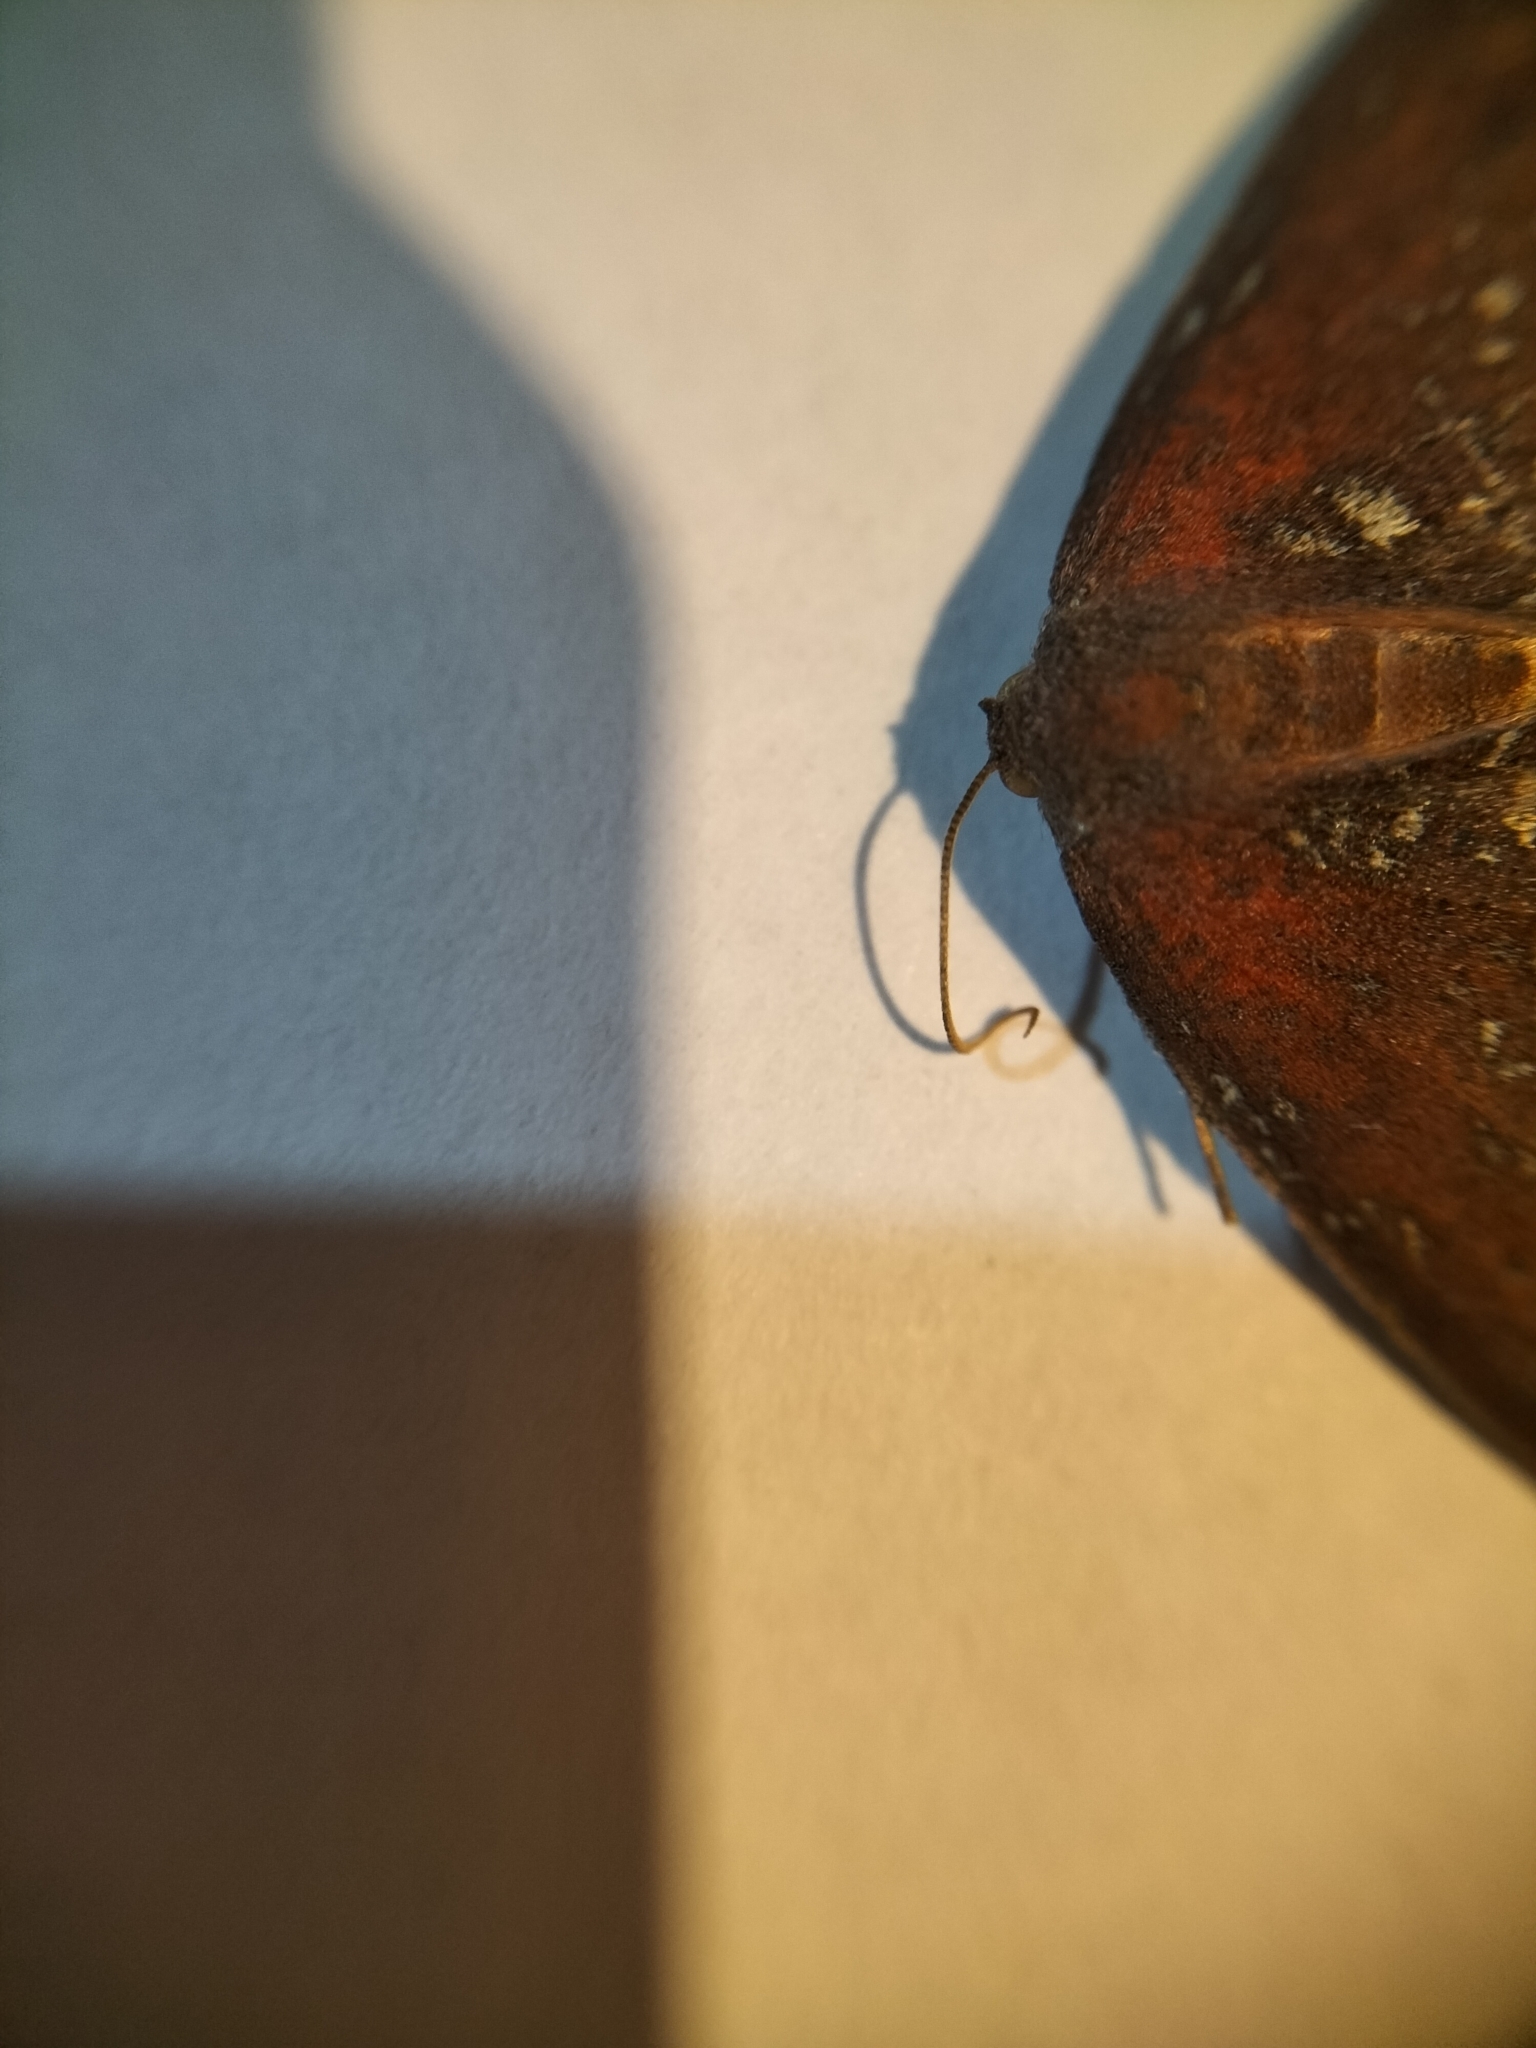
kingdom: Animalia
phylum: Arthropoda
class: Insecta
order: Lepidoptera
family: Geometridae
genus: Xyridacma
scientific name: Xyridacma ustaria
